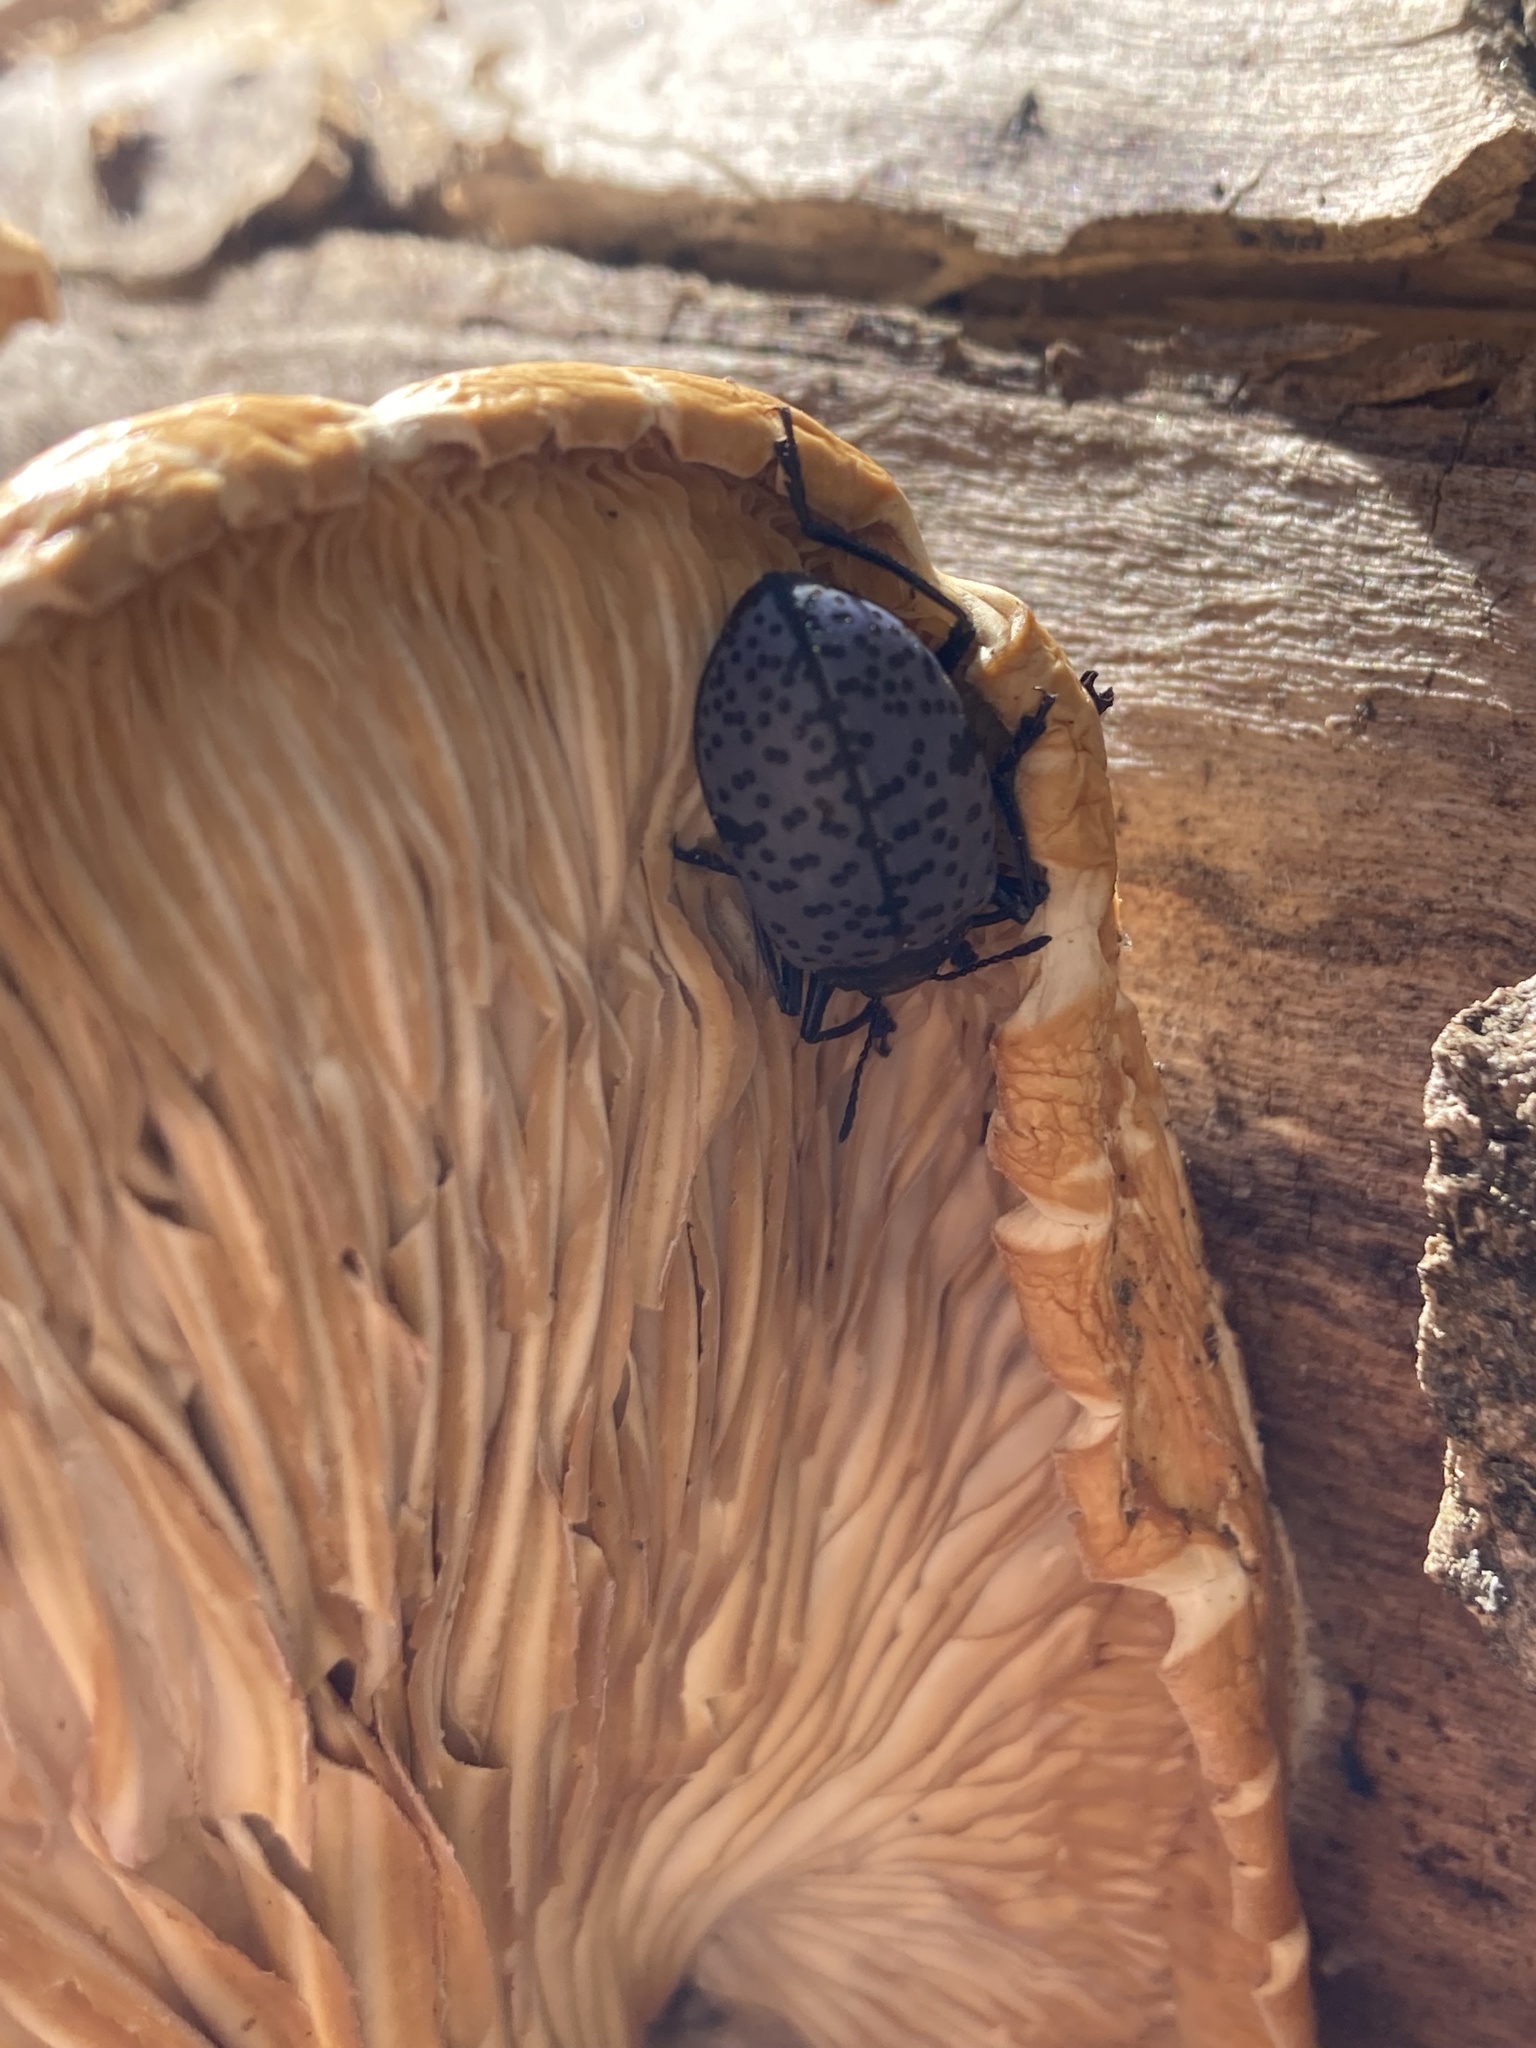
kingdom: Animalia
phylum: Arthropoda
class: Insecta
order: Coleoptera
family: Erotylidae
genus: Gibbifer
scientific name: Gibbifer californicus
